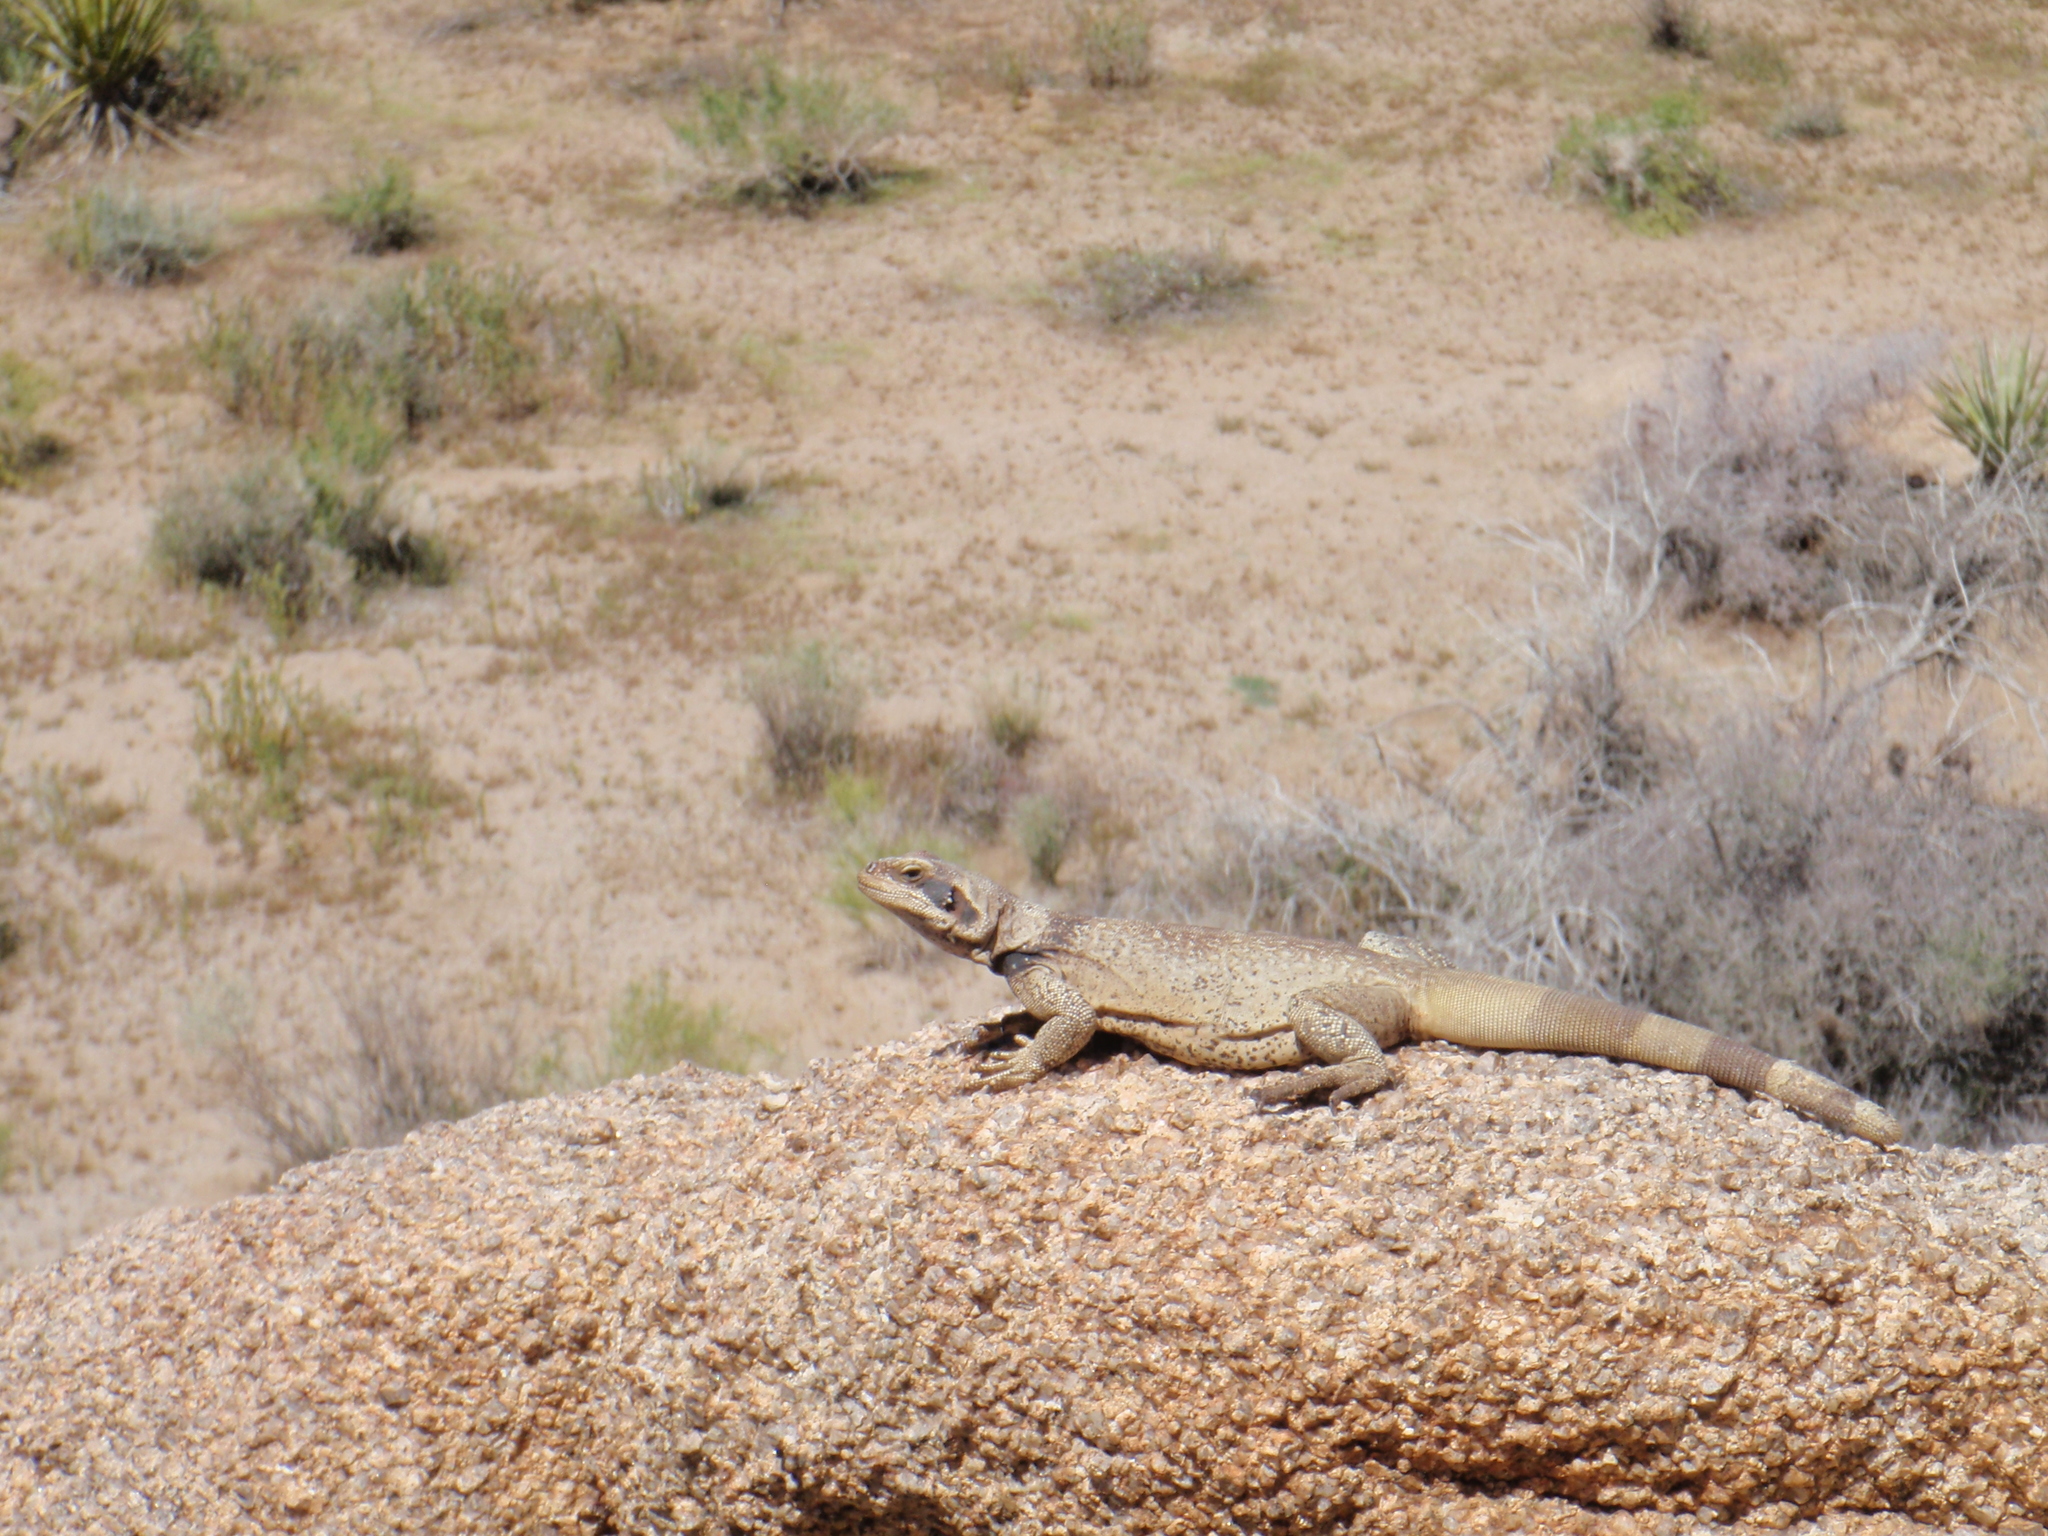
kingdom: Animalia
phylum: Chordata
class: Squamata
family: Iguanidae
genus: Sauromalus
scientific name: Sauromalus ater
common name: Northern chuckwalla
